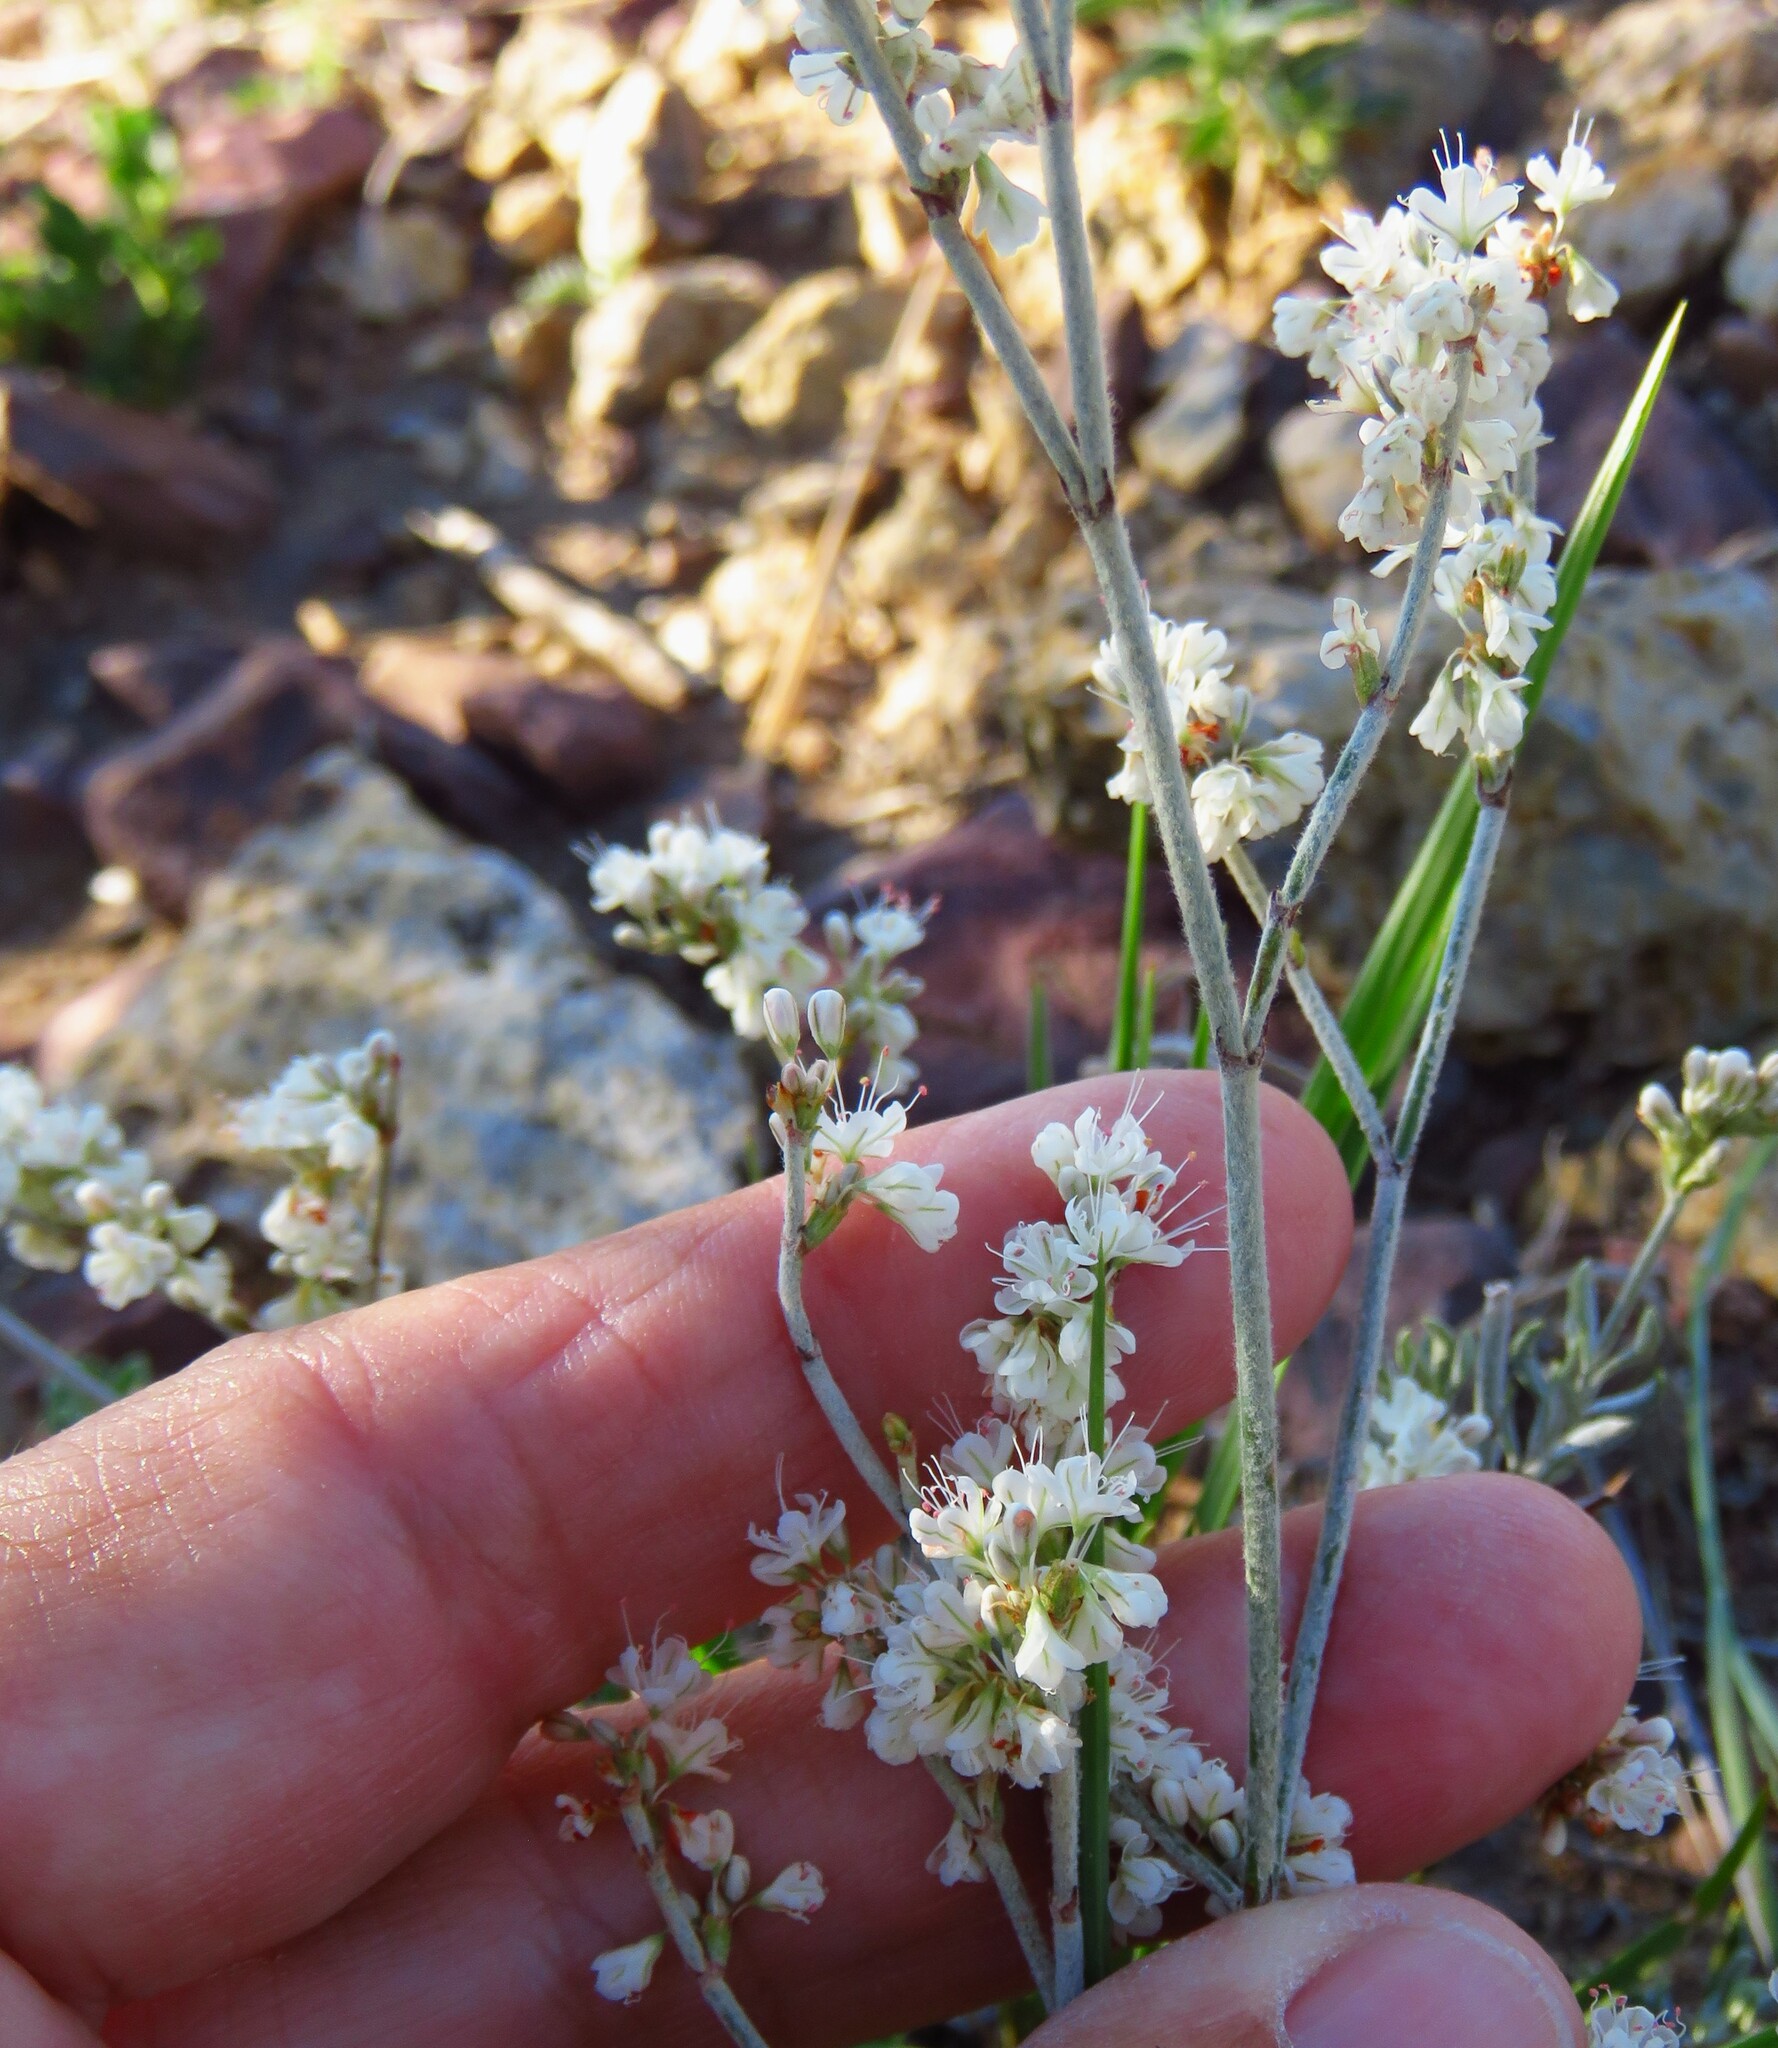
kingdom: Plantae
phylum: Tracheophyta
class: Magnoliopsida
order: Caryophyllales
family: Polygonaceae
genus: Eriogonum
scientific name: Eriogonum wrightii
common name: Bastard-sage
